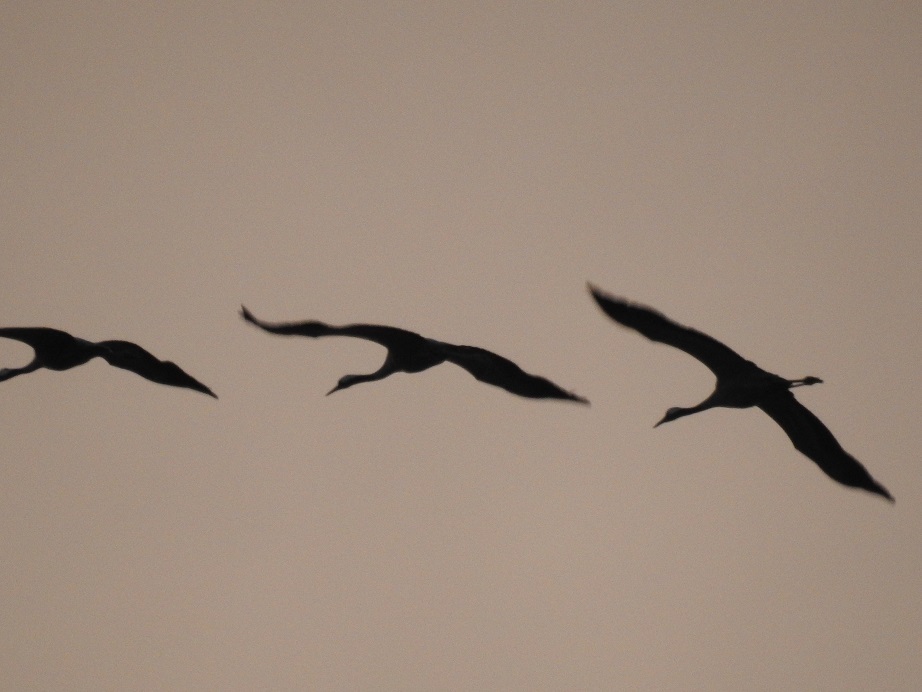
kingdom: Animalia
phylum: Chordata
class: Aves
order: Gruiformes
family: Gruidae
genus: Grus
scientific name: Grus grus
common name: Common crane
